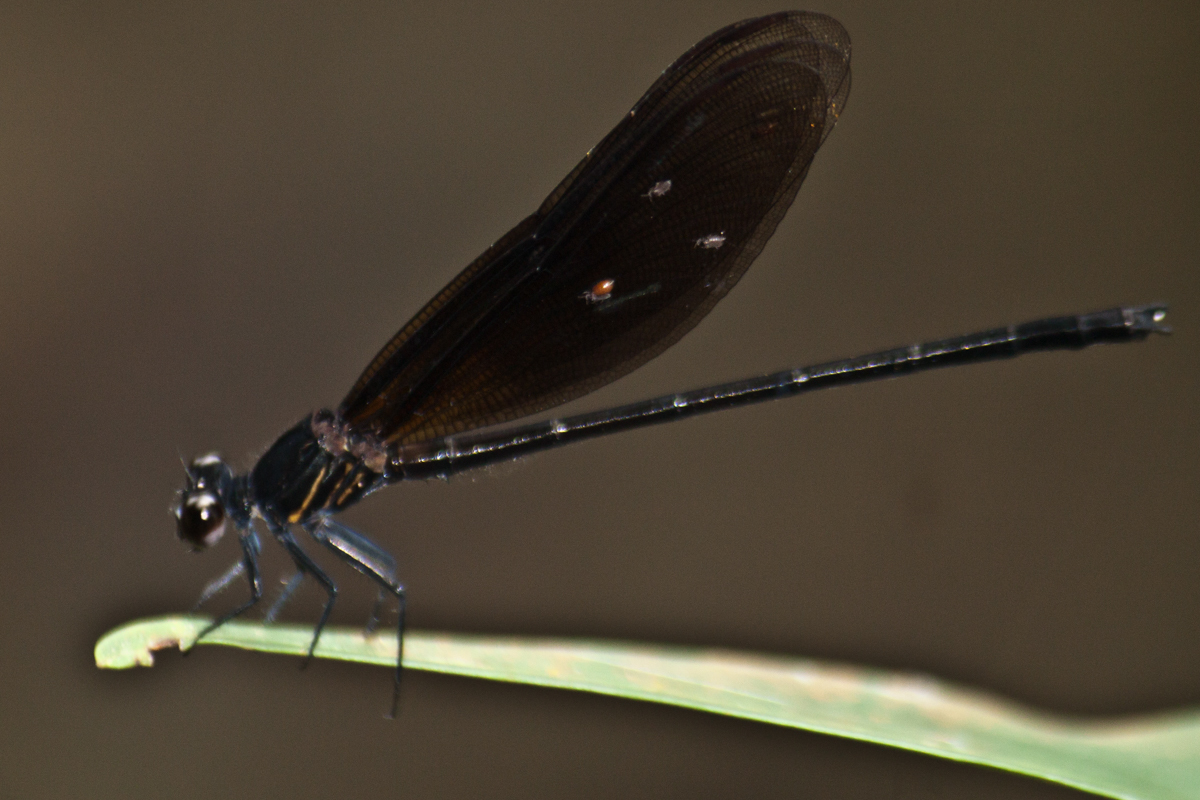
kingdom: Animalia
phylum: Arthropoda
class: Insecta
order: Odonata
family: Euphaeidae
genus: Euphaea
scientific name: Euphaea masoni
